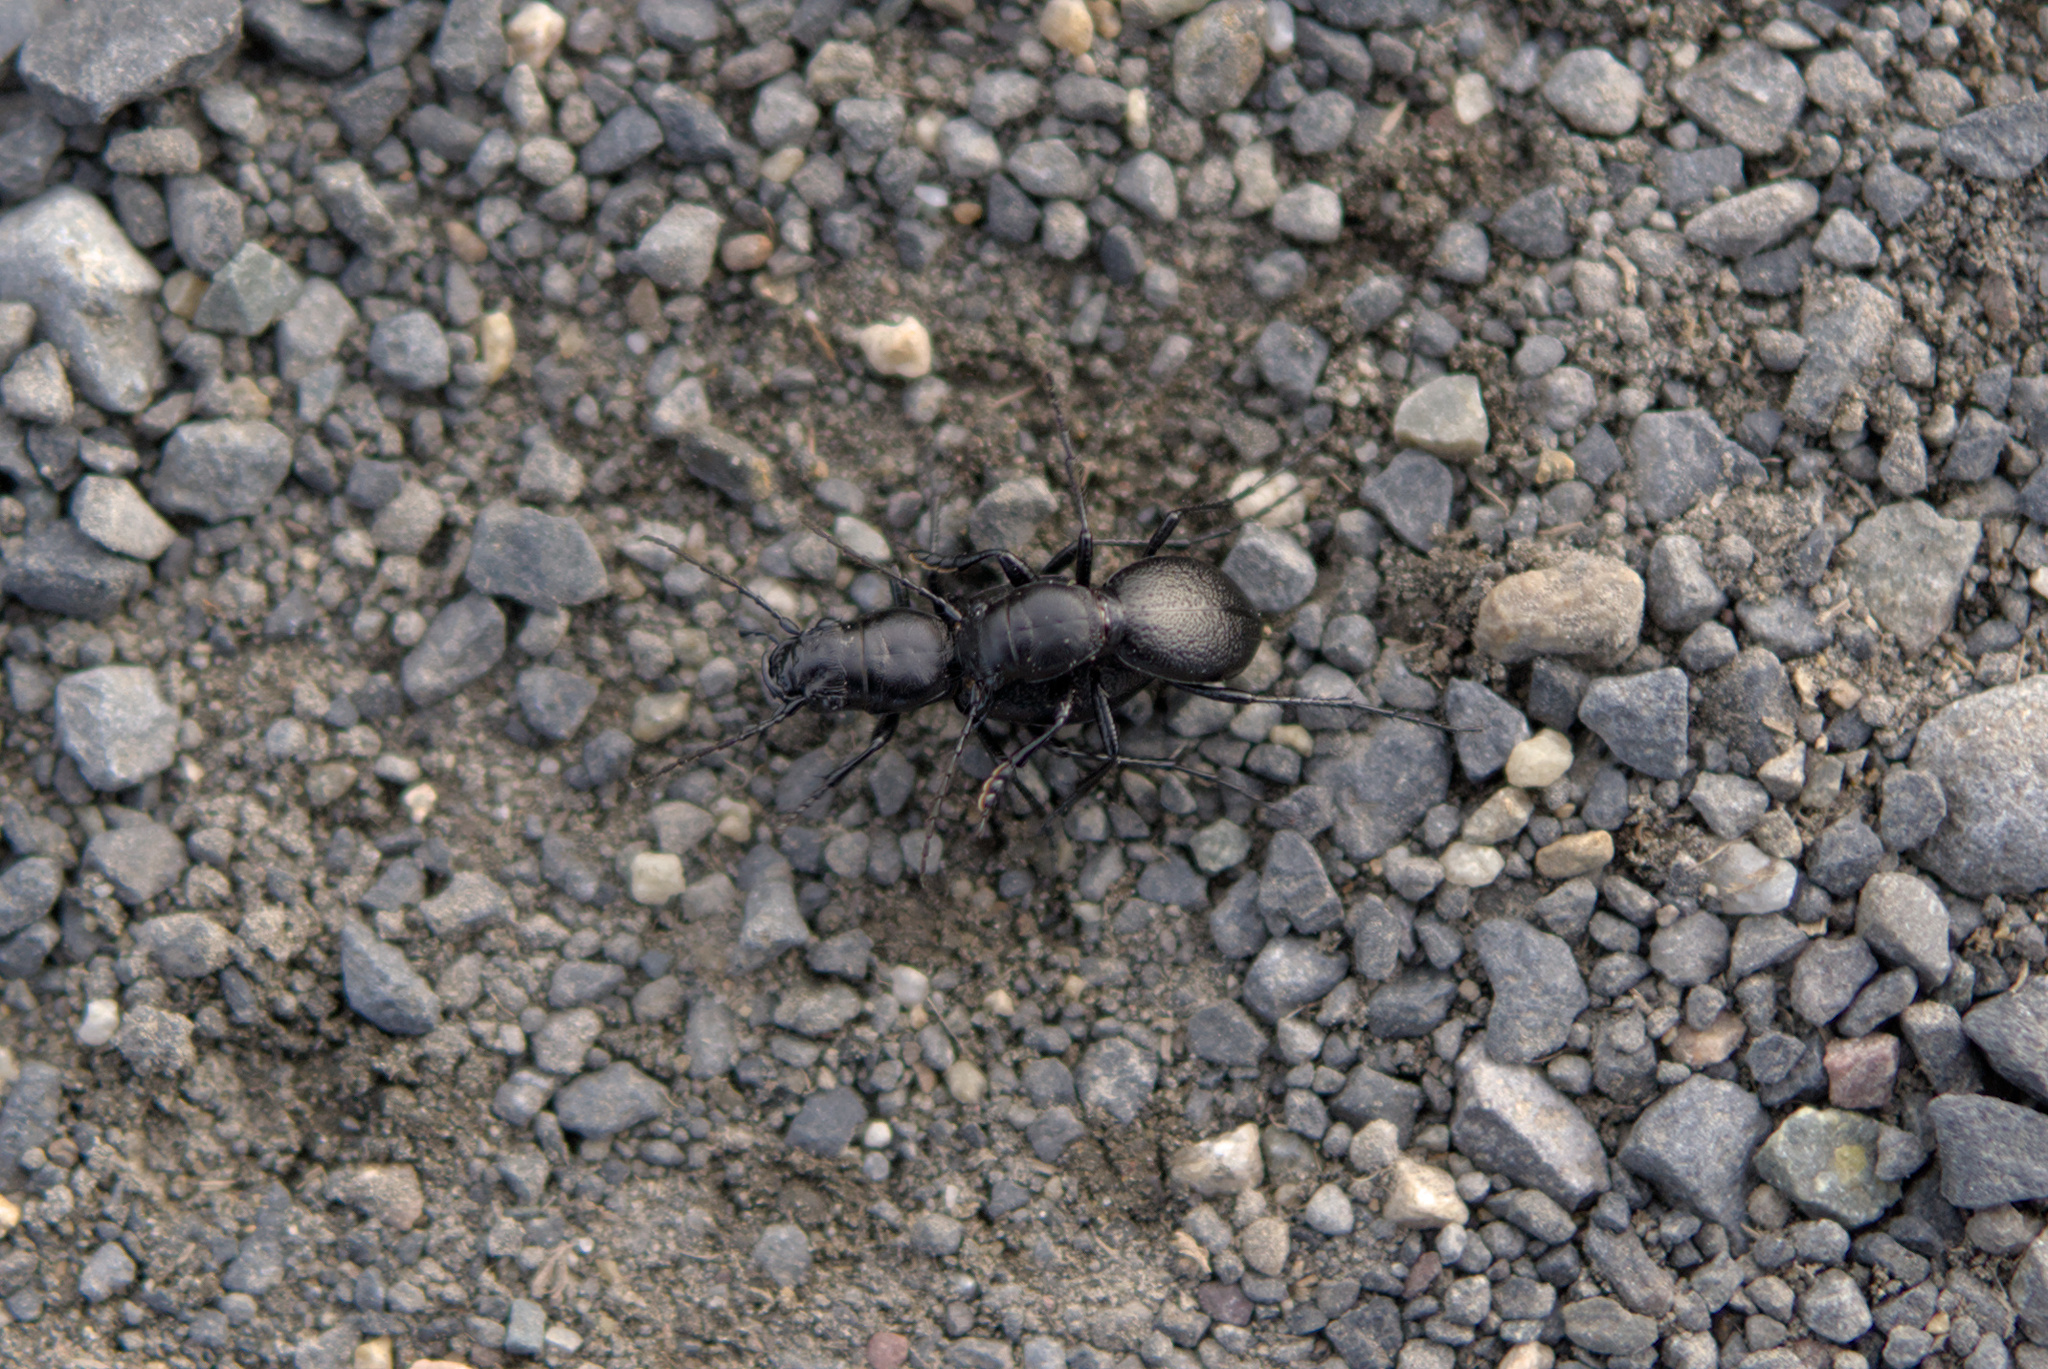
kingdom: Animalia
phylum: Arthropoda
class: Insecta
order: Coleoptera
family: Carabidae
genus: Omus
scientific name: Omus audouini
